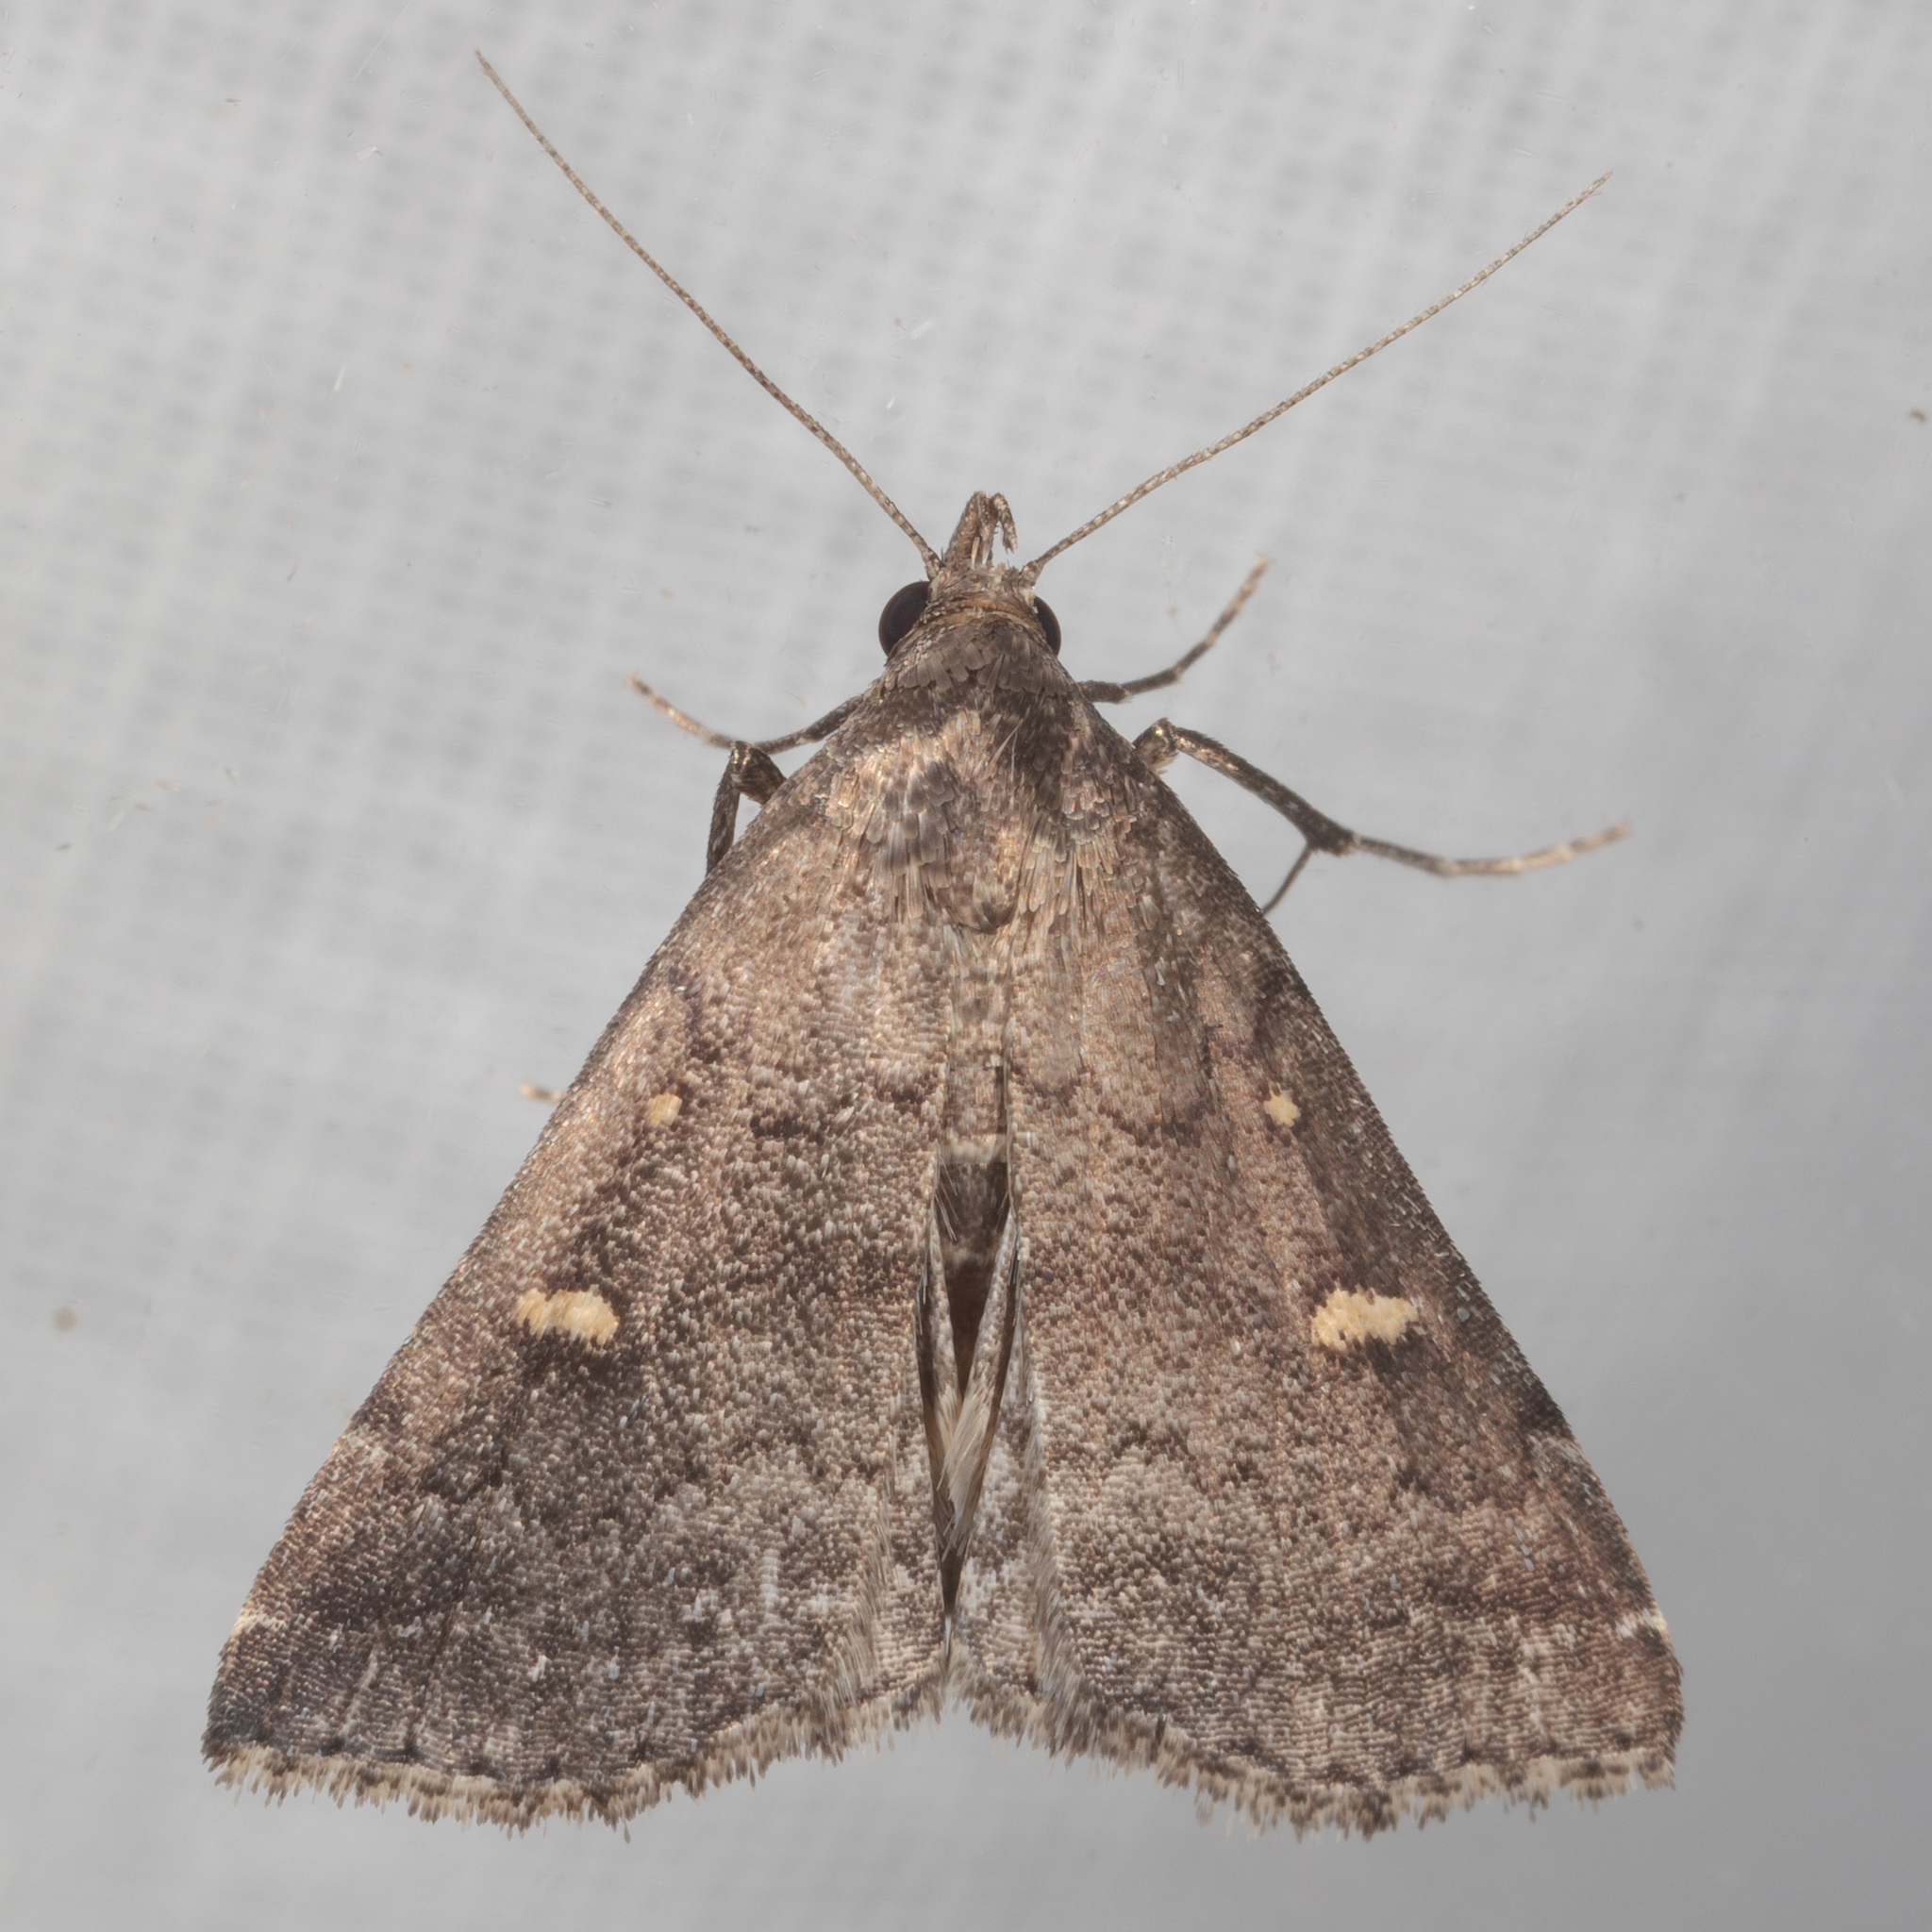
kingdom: Animalia
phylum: Arthropoda
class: Insecta
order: Lepidoptera
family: Erebidae
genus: Tetanolita
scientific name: Tetanolita mynesalis
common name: Smoky tetanolita moth
